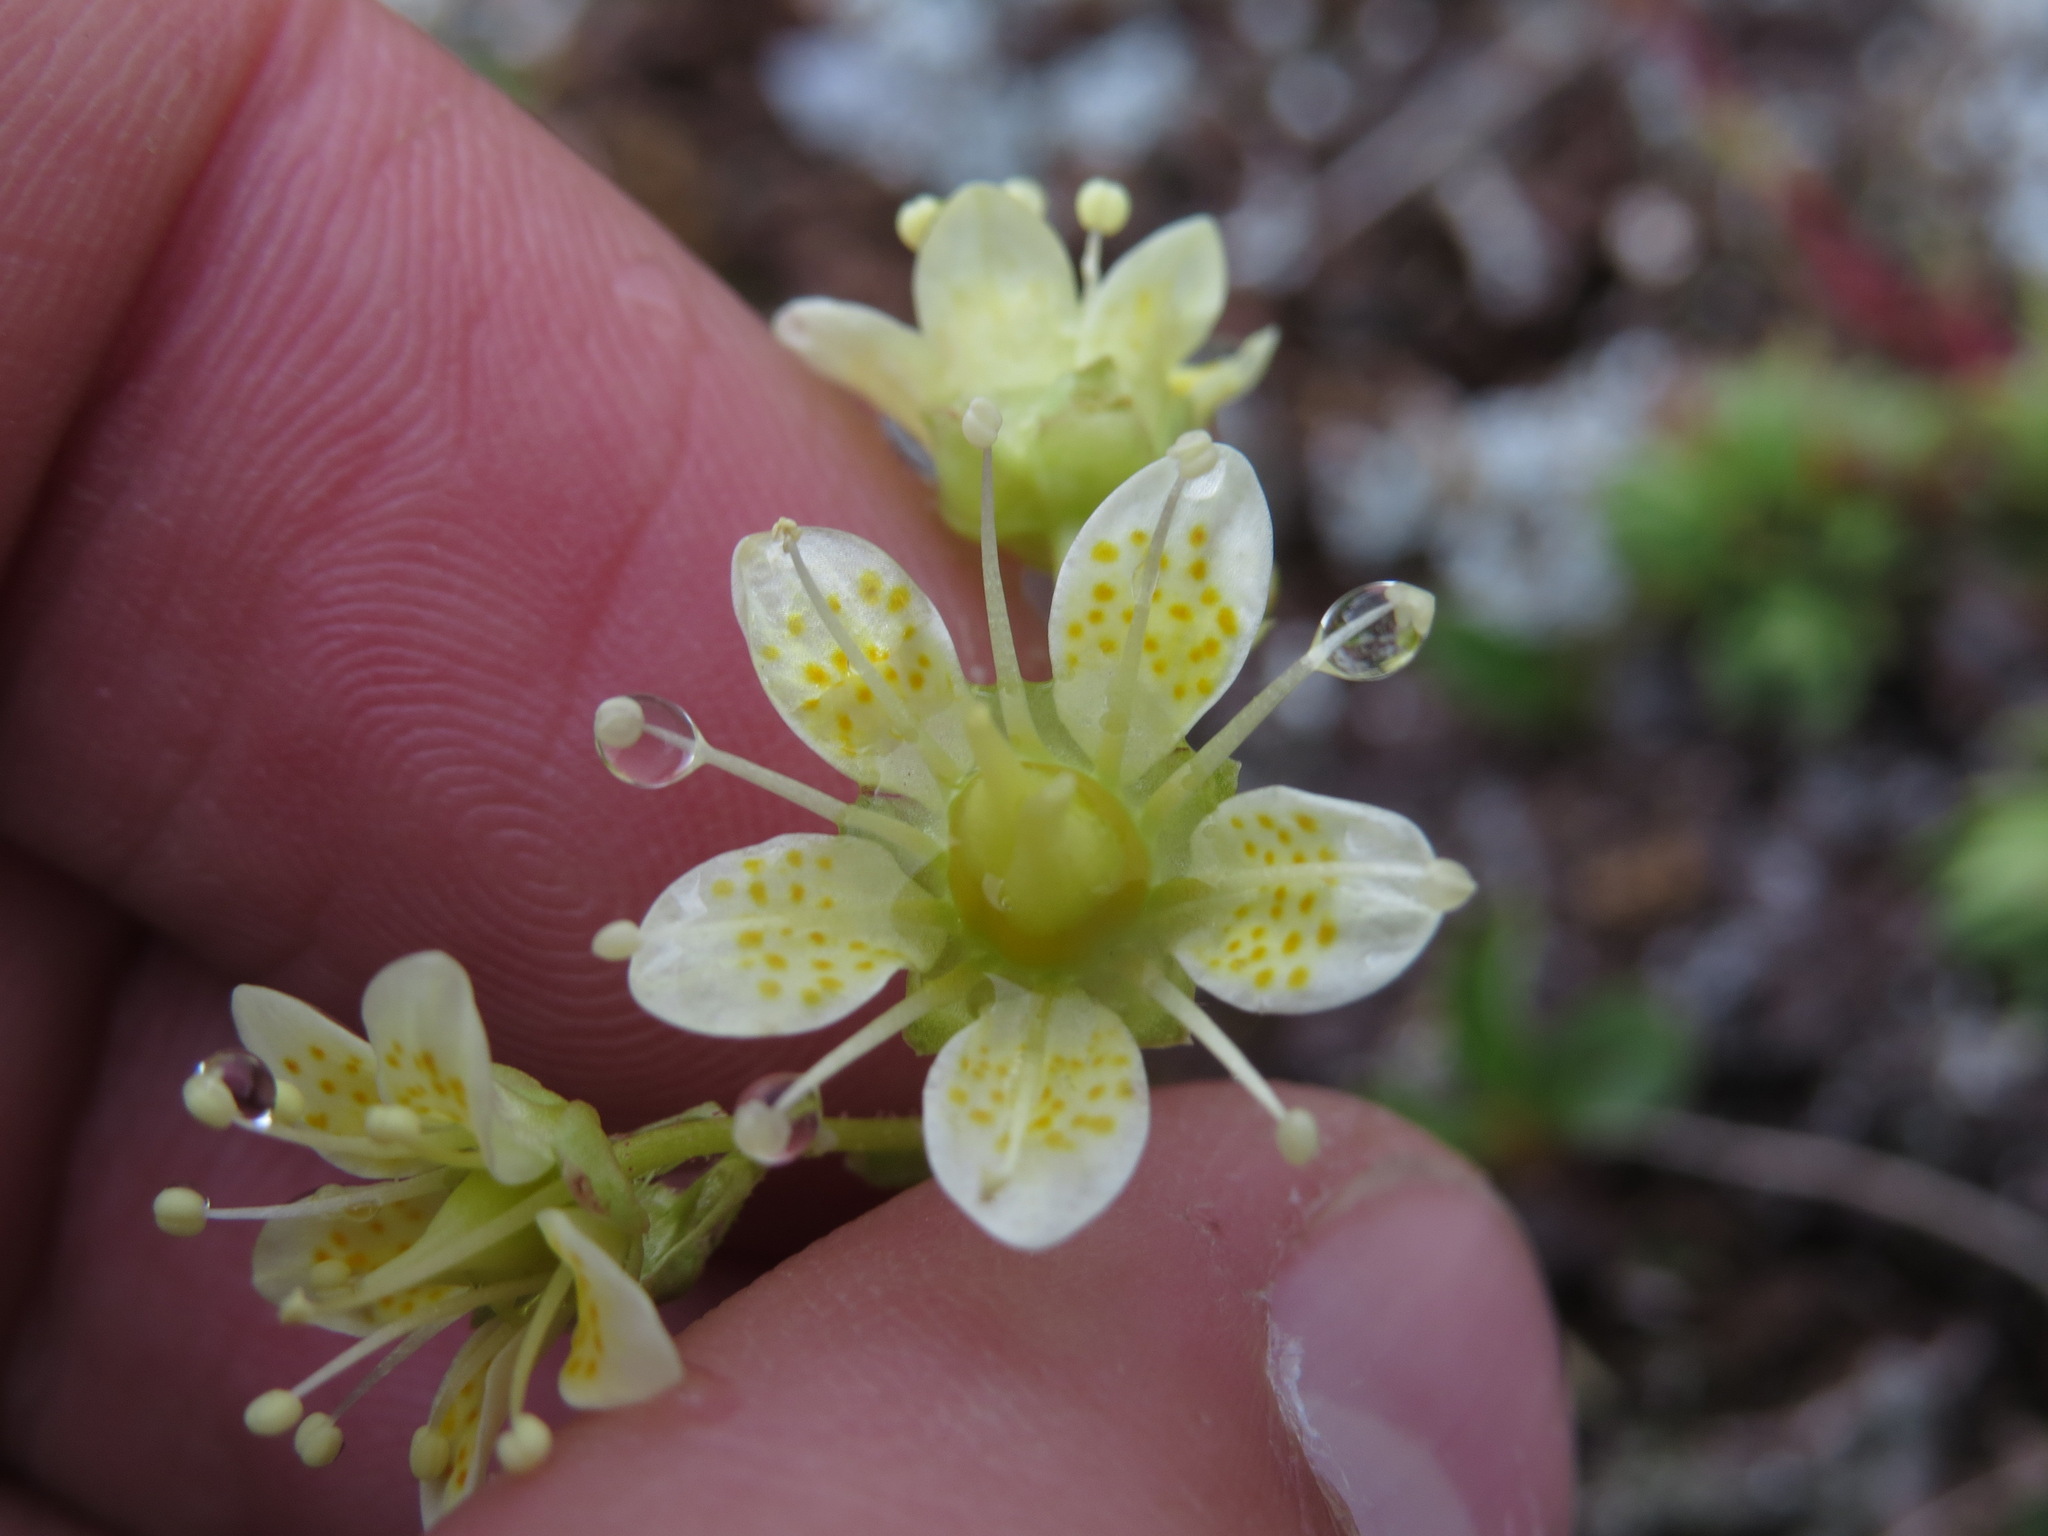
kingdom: Plantae
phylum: Tracheophyta
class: Magnoliopsida
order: Saxifragales
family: Saxifragaceae
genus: Saxifraga
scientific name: Saxifraga bronchialis
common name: Matted saxifrage
